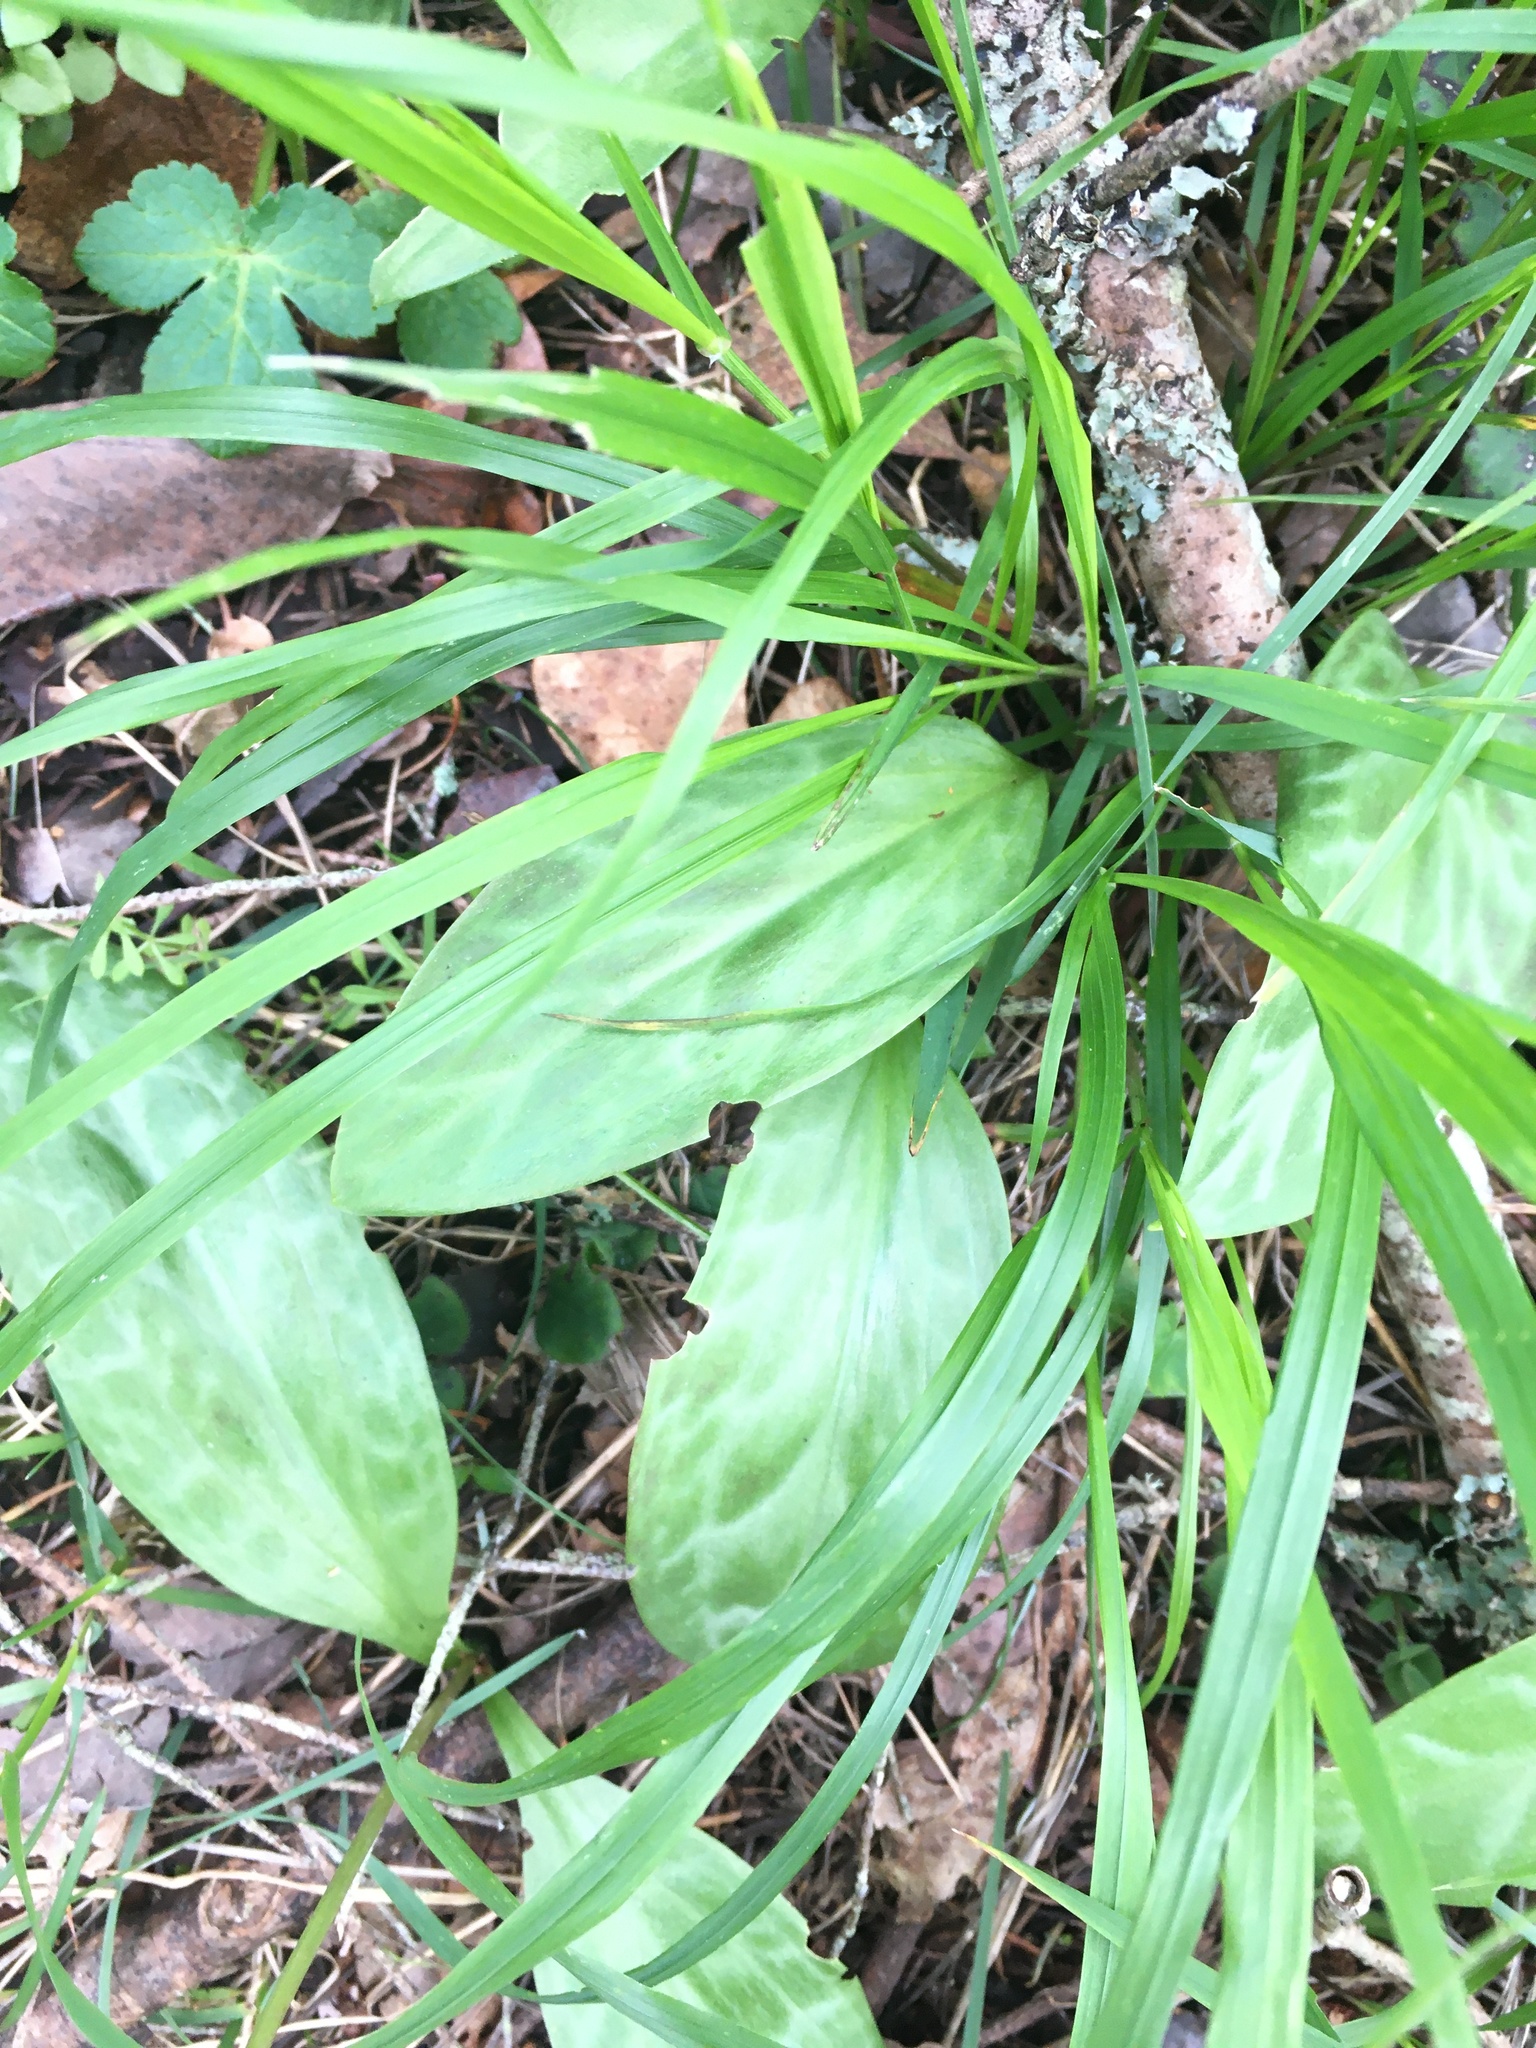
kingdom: Plantae
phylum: Tracheophyta
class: Liliopsida
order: Liliales
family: Liliaceae
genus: Erythronium
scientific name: Erythronium oregonum
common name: Giant adder's-tongue
